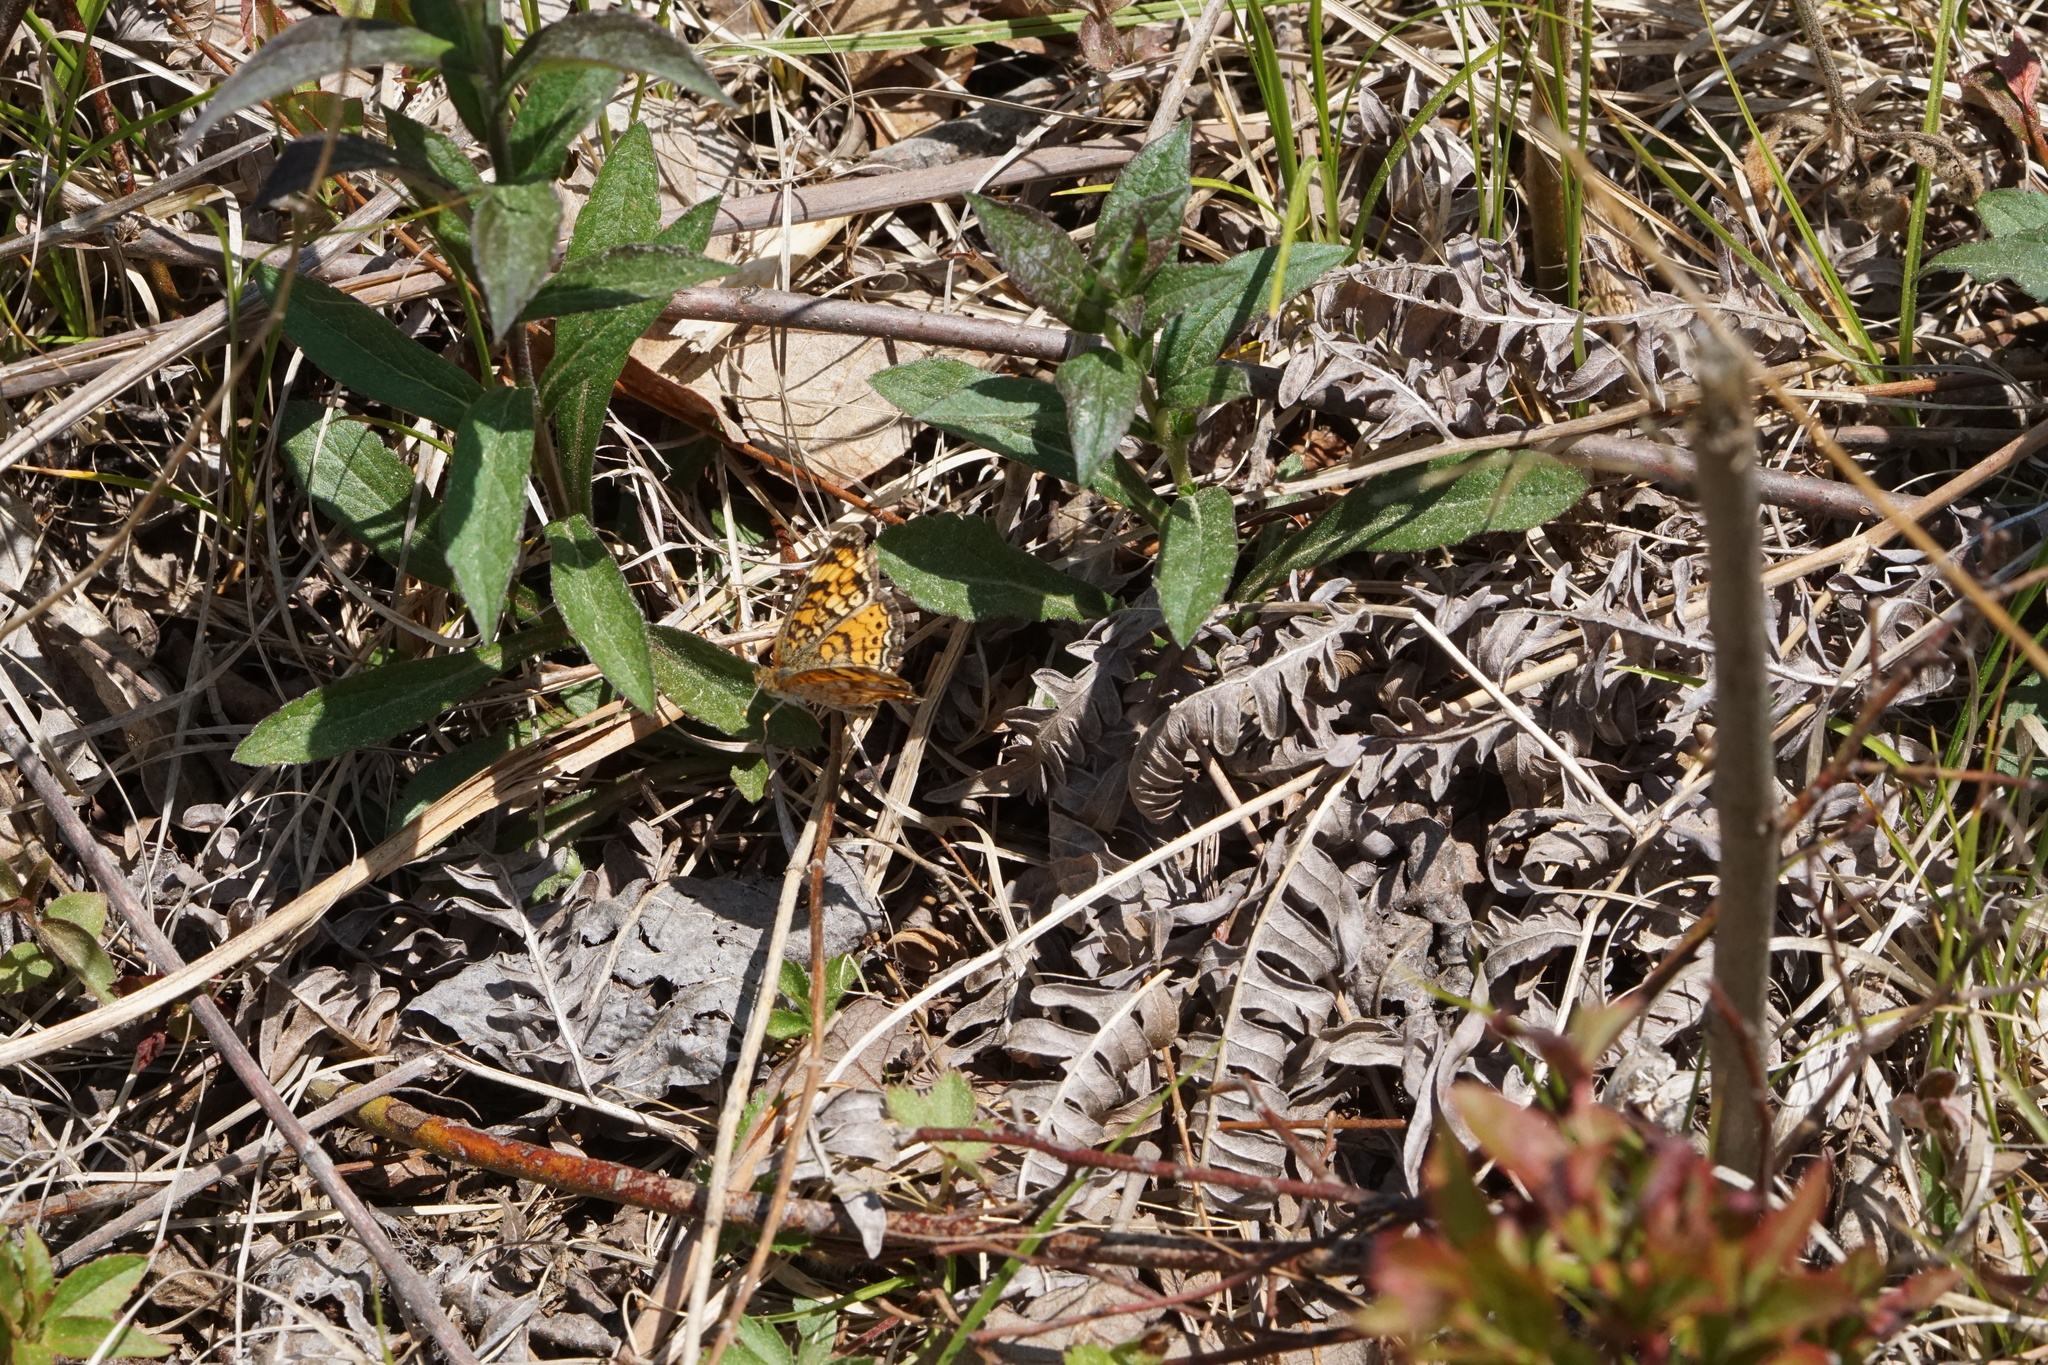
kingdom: Animalia
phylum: Arthropoda
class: Insecta
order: Lepidoptera
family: Nymphalidae
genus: Phyciodes
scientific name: Phyciodes tharos
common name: Pearl crescent
